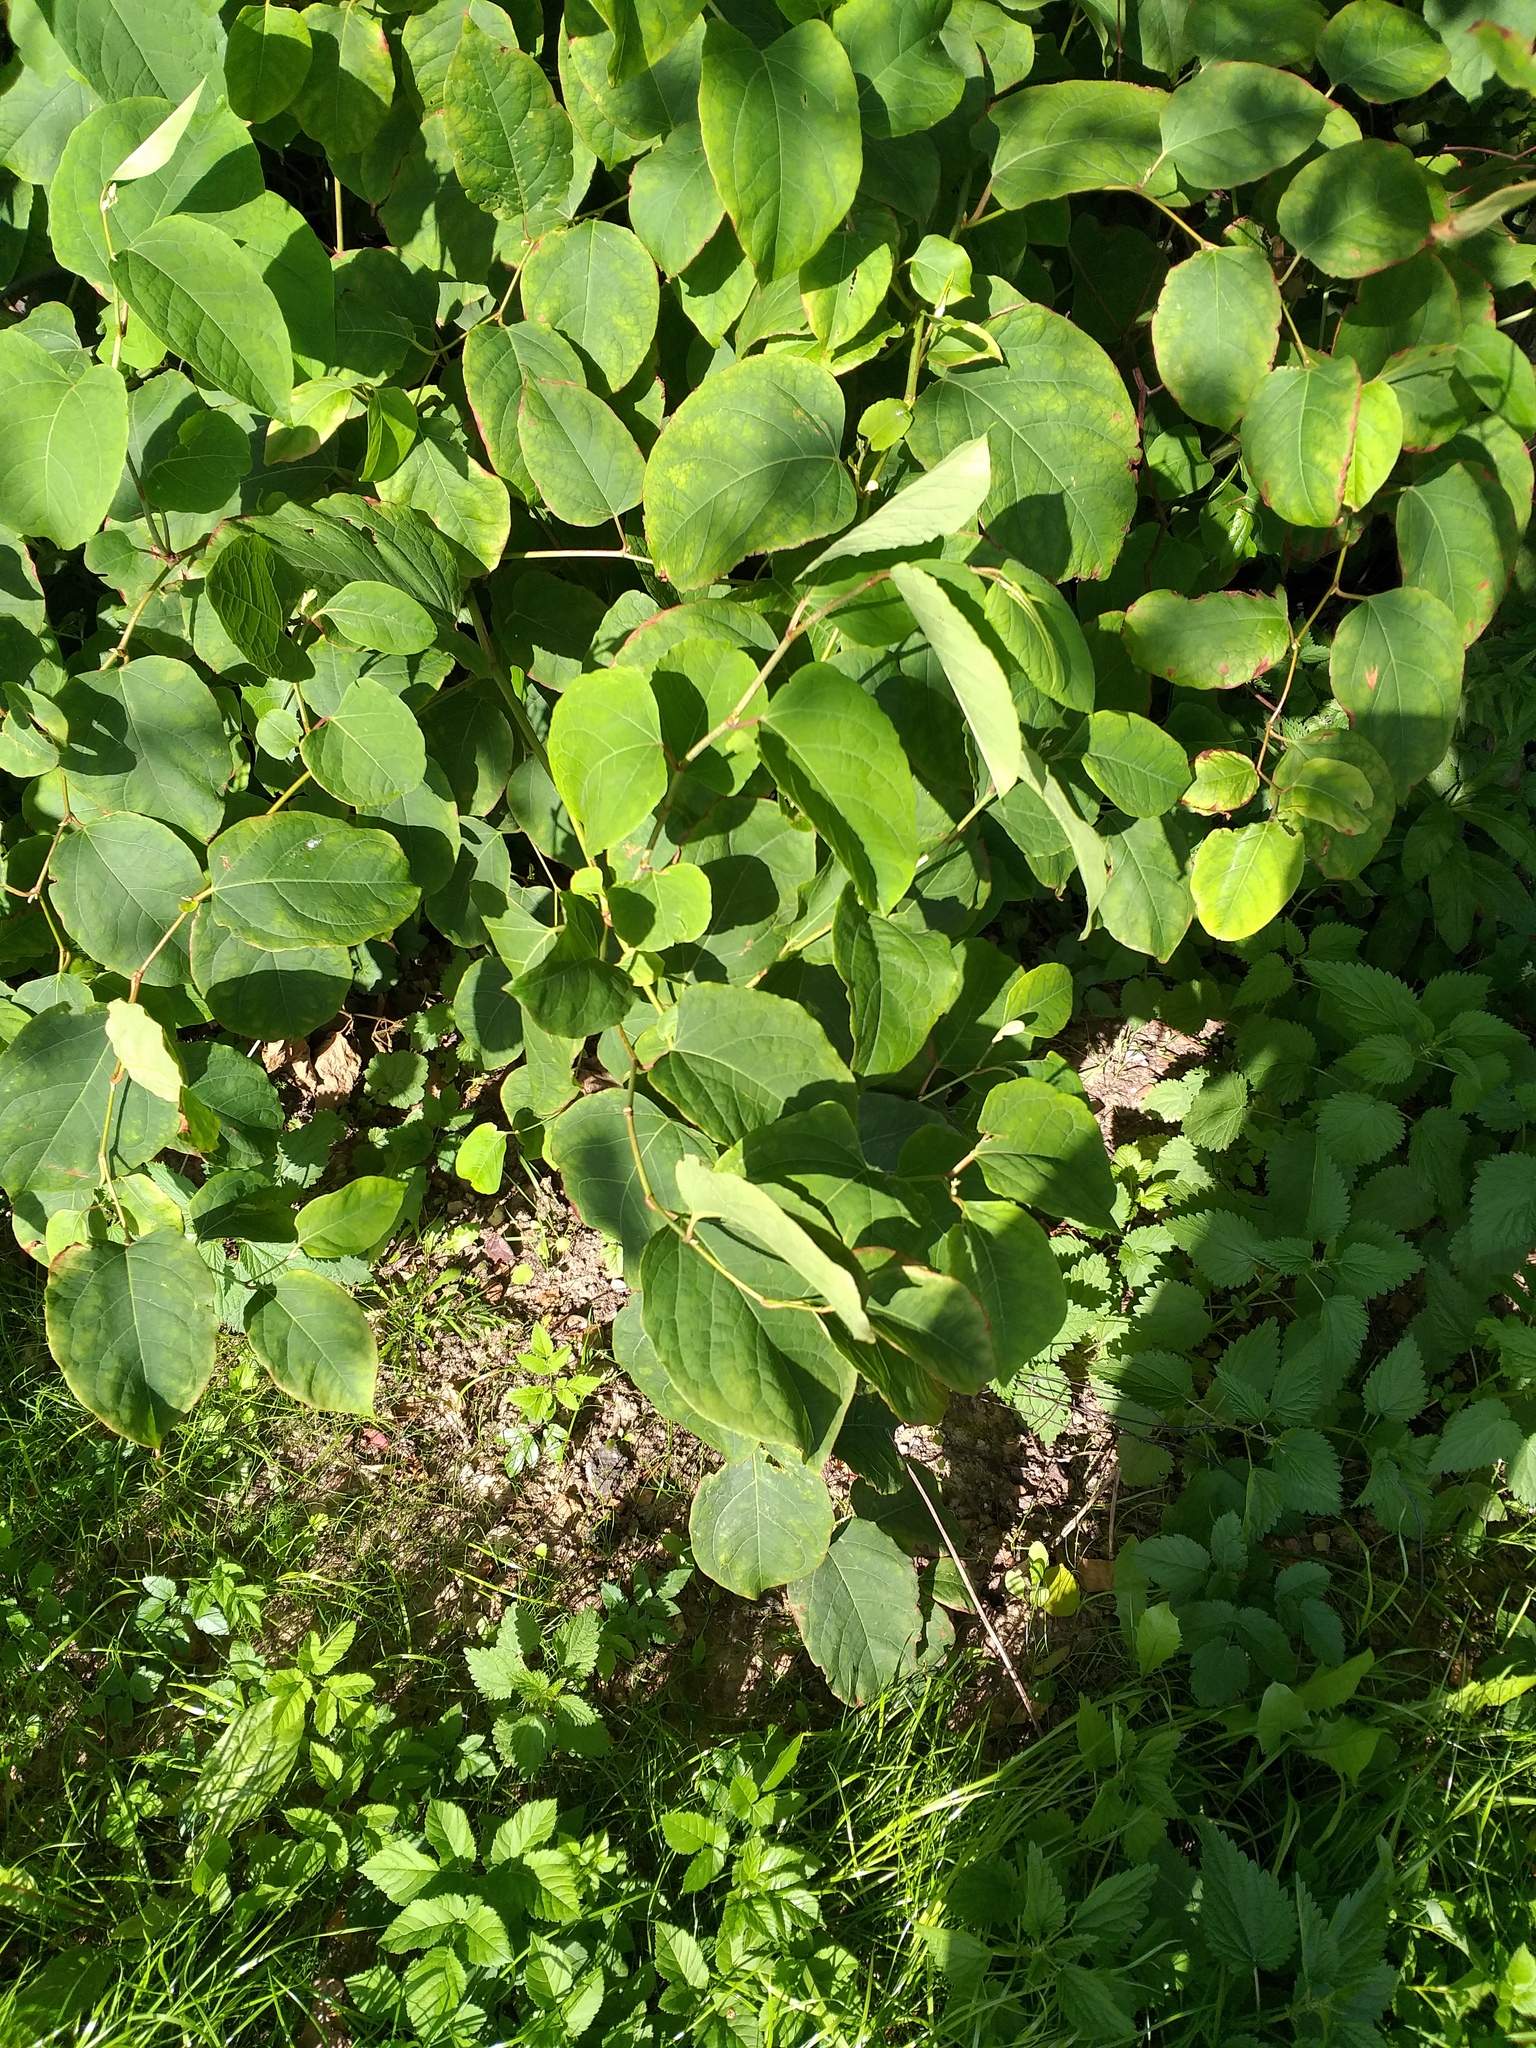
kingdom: Plantae
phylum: Tracheophyta
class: Magnoliopsida
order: Caryophyllales
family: Polygonaceae
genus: Reynoutria
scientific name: Reynoutria bohemica
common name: Bohemian knotweed
